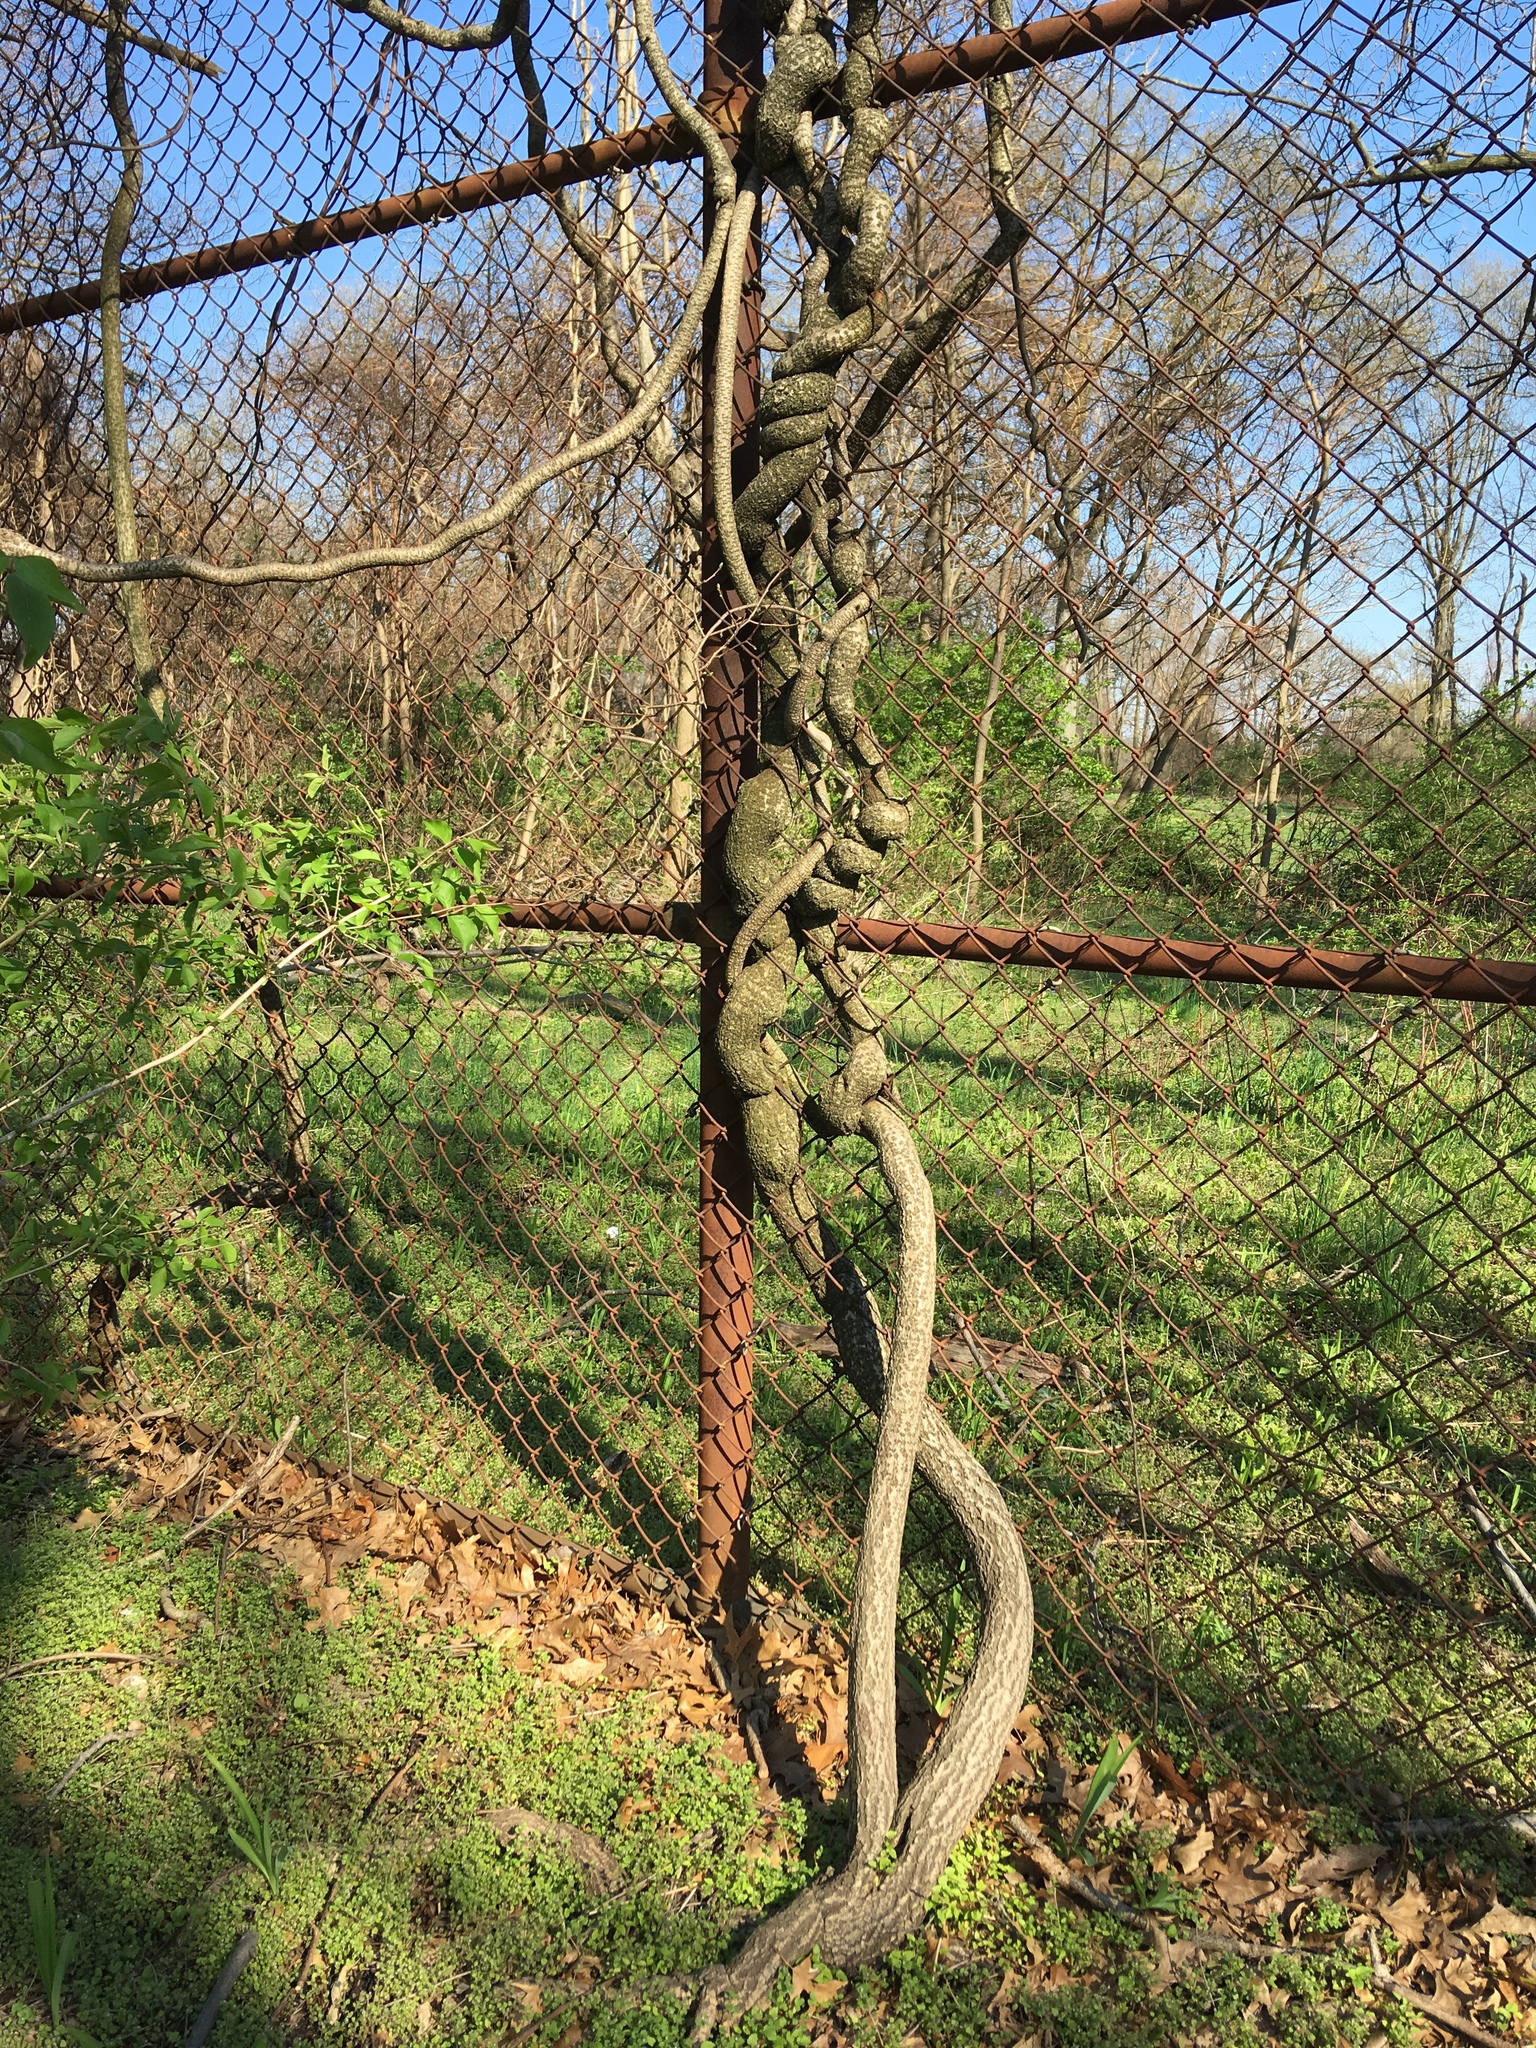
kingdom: Plantae
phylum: Tracheophyta
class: Magnoliopsida
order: Celastrales
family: Celastraceae
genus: Celastrus
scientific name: Celastrus orbiculatus
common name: Oriental bittersweet
